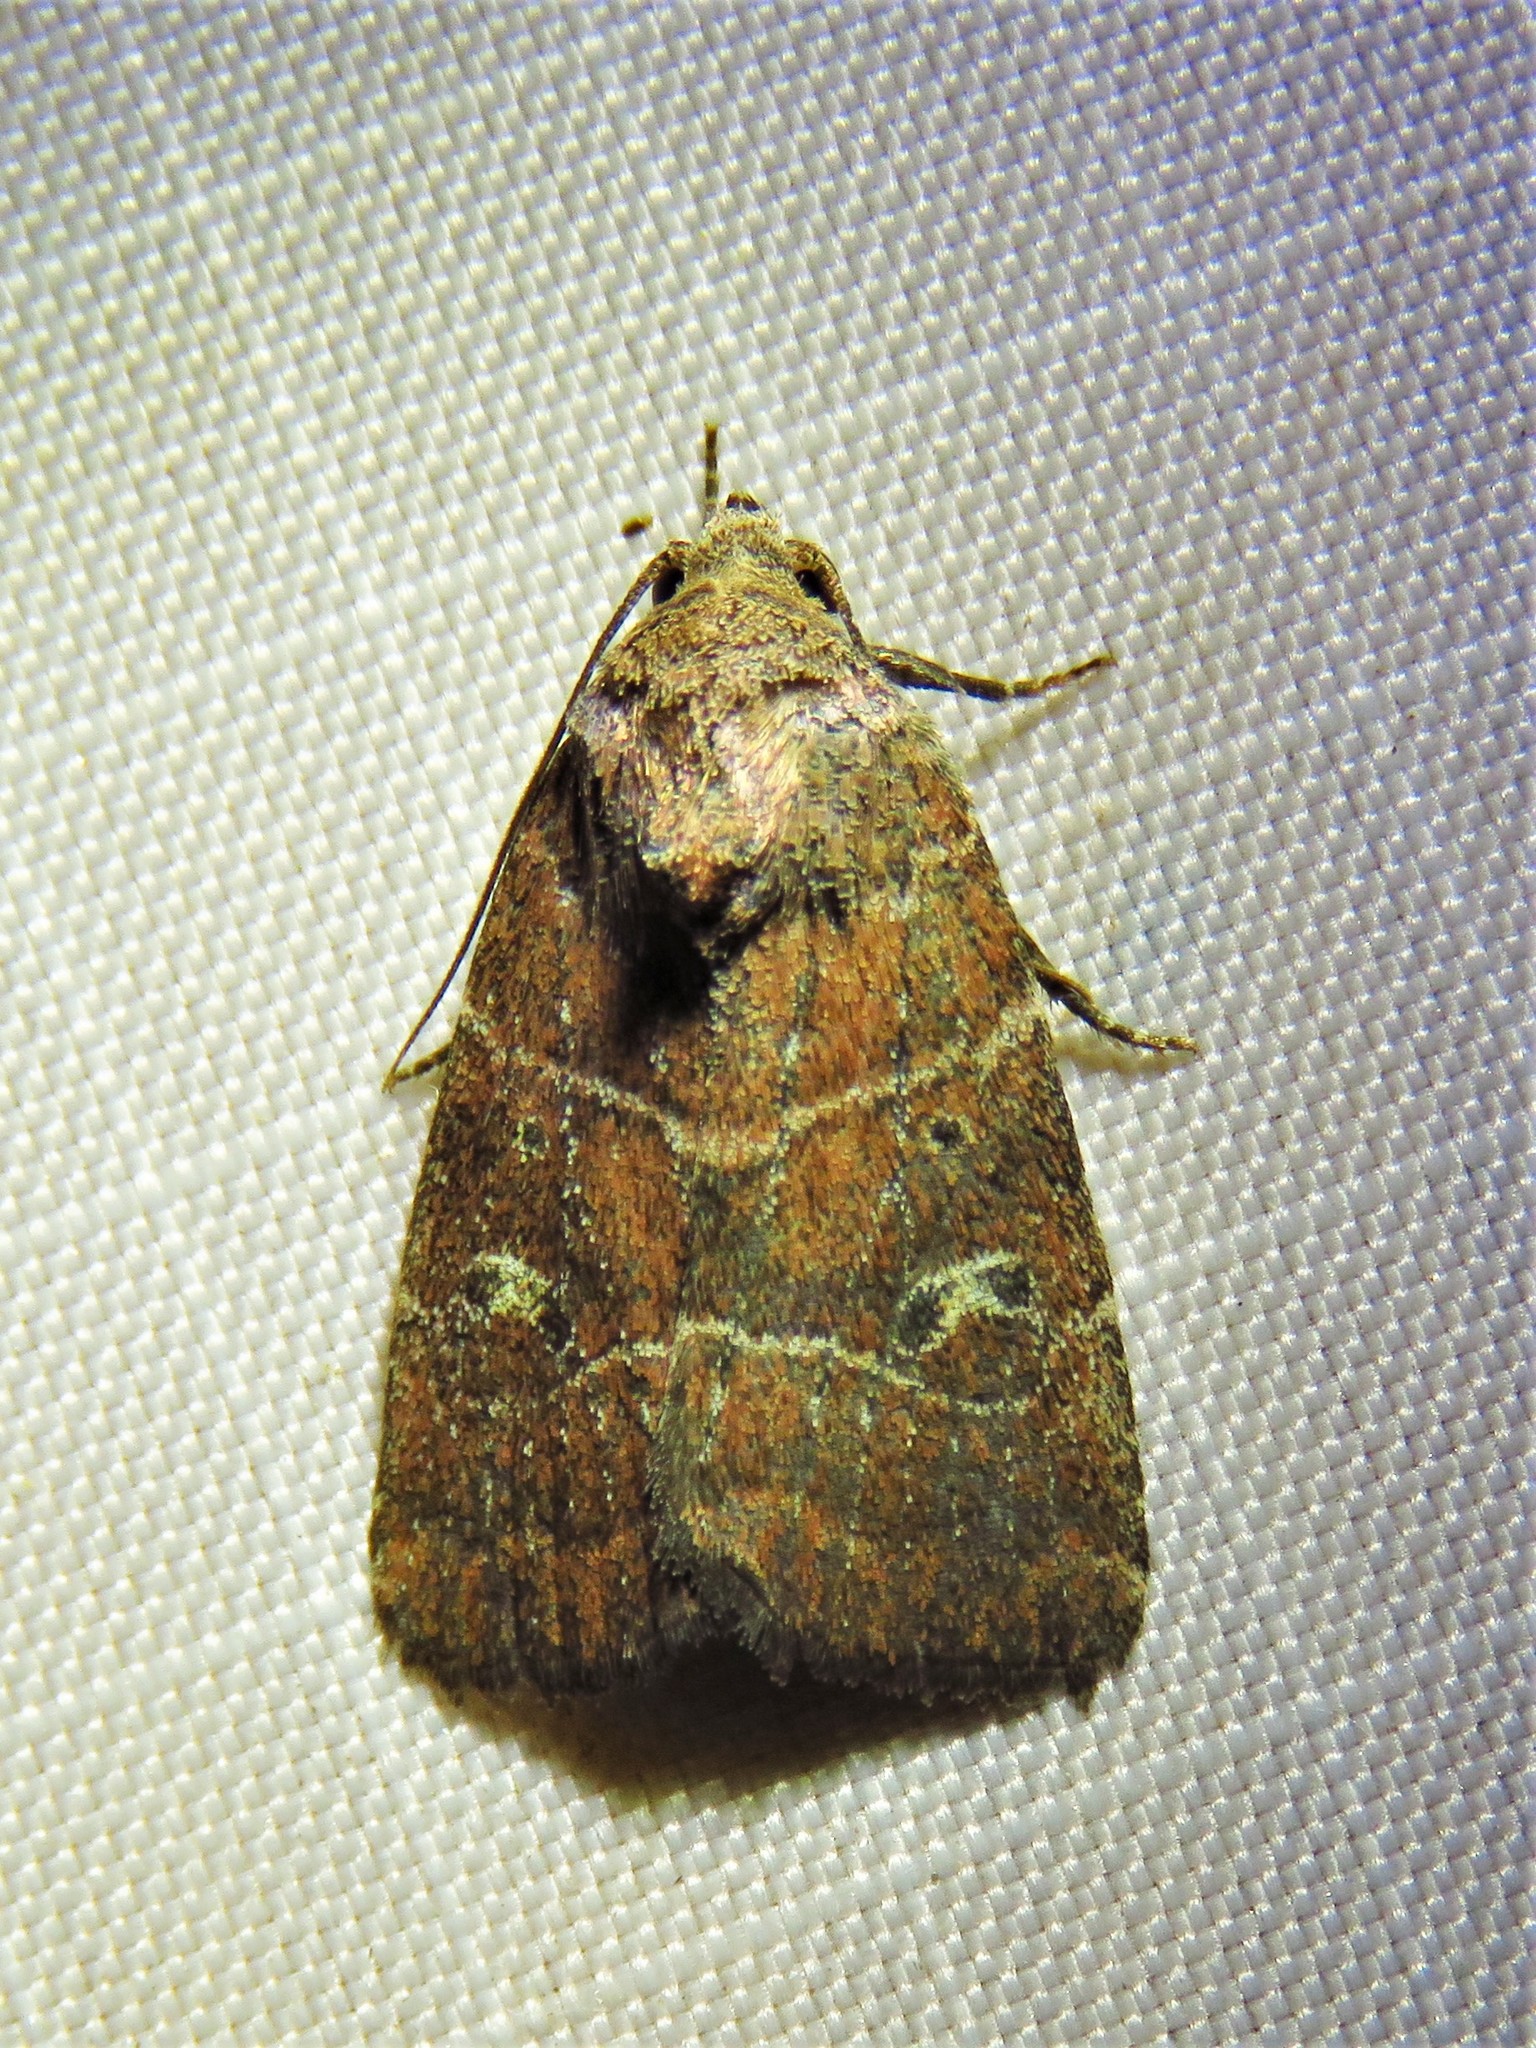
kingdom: Animalia
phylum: Arthropoda
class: Insecta
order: Lepidoptera
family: Noctuidae
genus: Elaphria
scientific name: Elaphria grata
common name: Grateful midget moth
